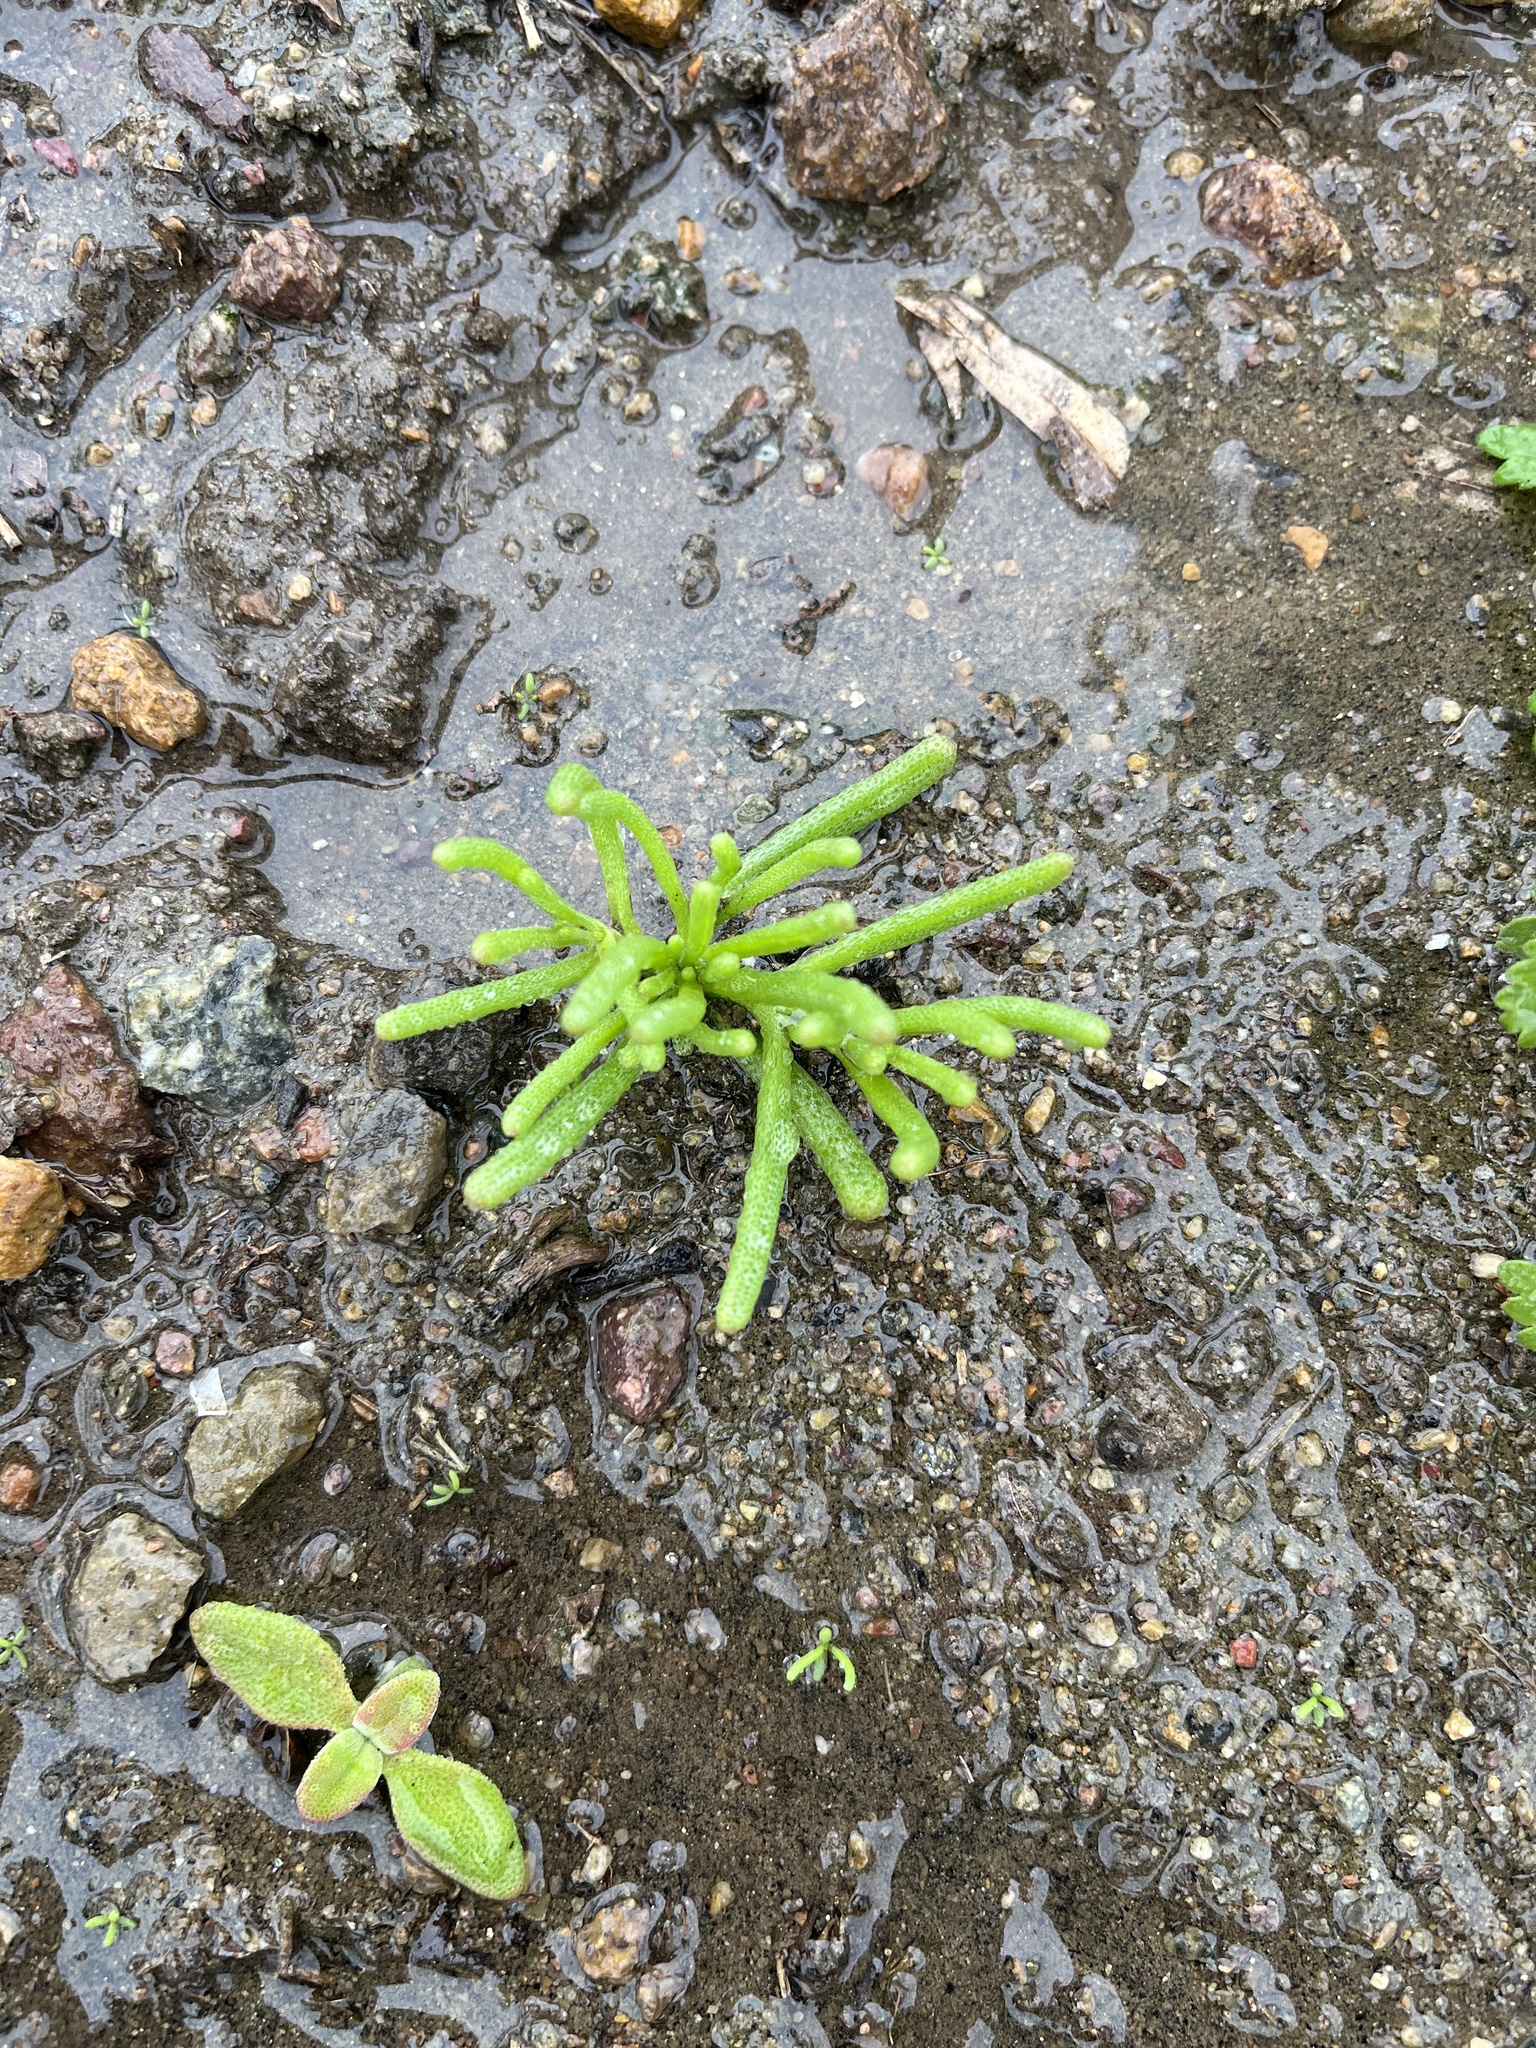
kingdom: Plantae
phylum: Tracheophyta
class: Magnoliopsida
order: Caryophyllales
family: Aizoaceae
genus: Mesembryanthemum
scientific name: Mesembryanthemum nodiflorum
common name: Slenderleaf iceplant
